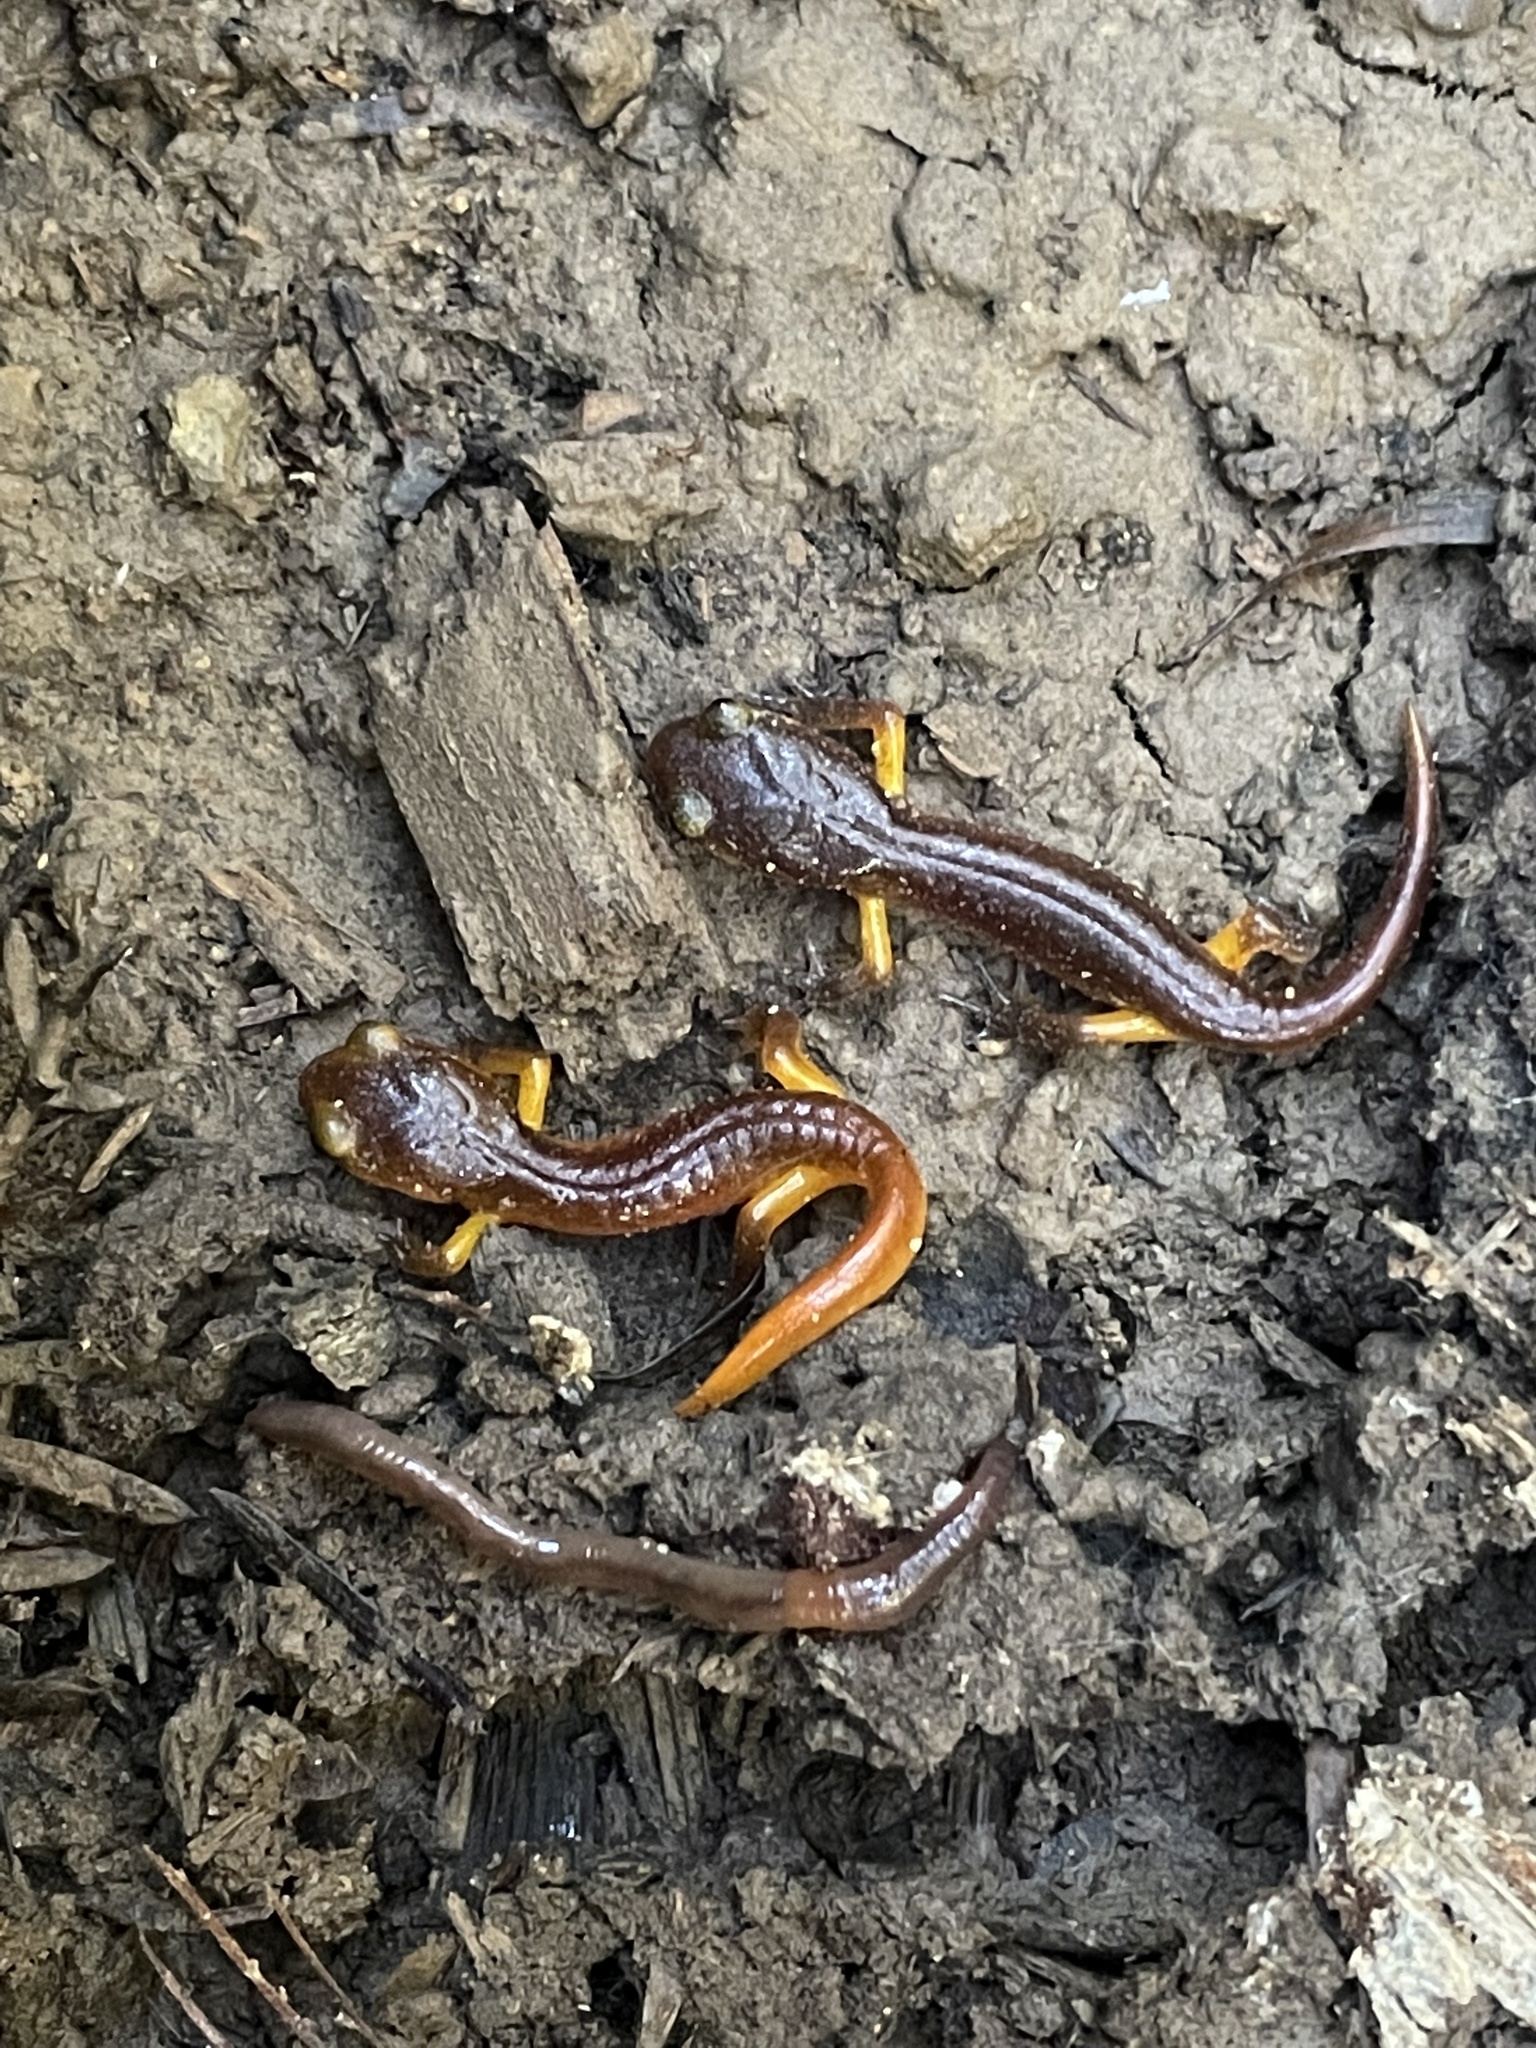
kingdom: Animalia
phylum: Chordata
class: Amphibia
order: Caudata
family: Plethodontidae
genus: Ensatina
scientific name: Ensatina eschscholtzii
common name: Ensatina
